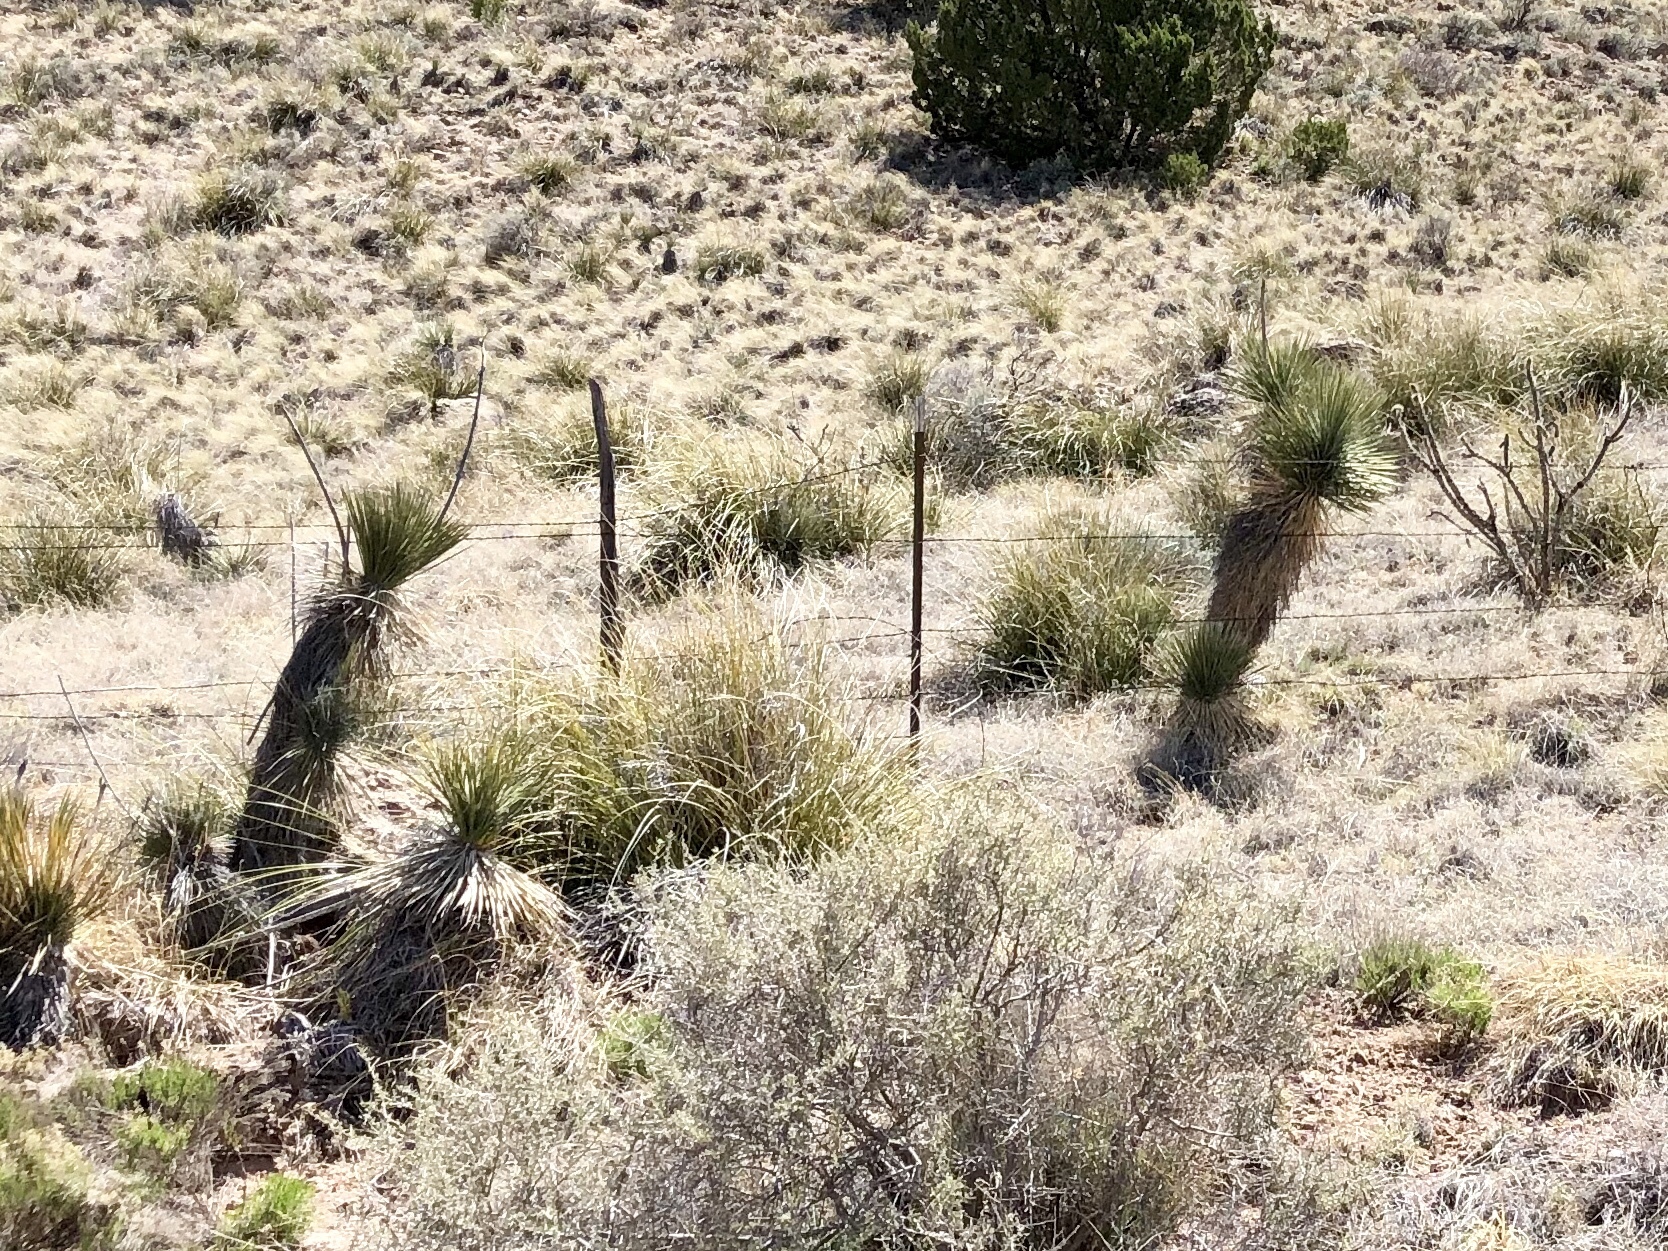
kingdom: Plantae
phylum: Tracheophyta
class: Liliopsida
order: Asparagales
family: Asparagaceae
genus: Yucca
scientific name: Yucca elata
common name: Palmella
